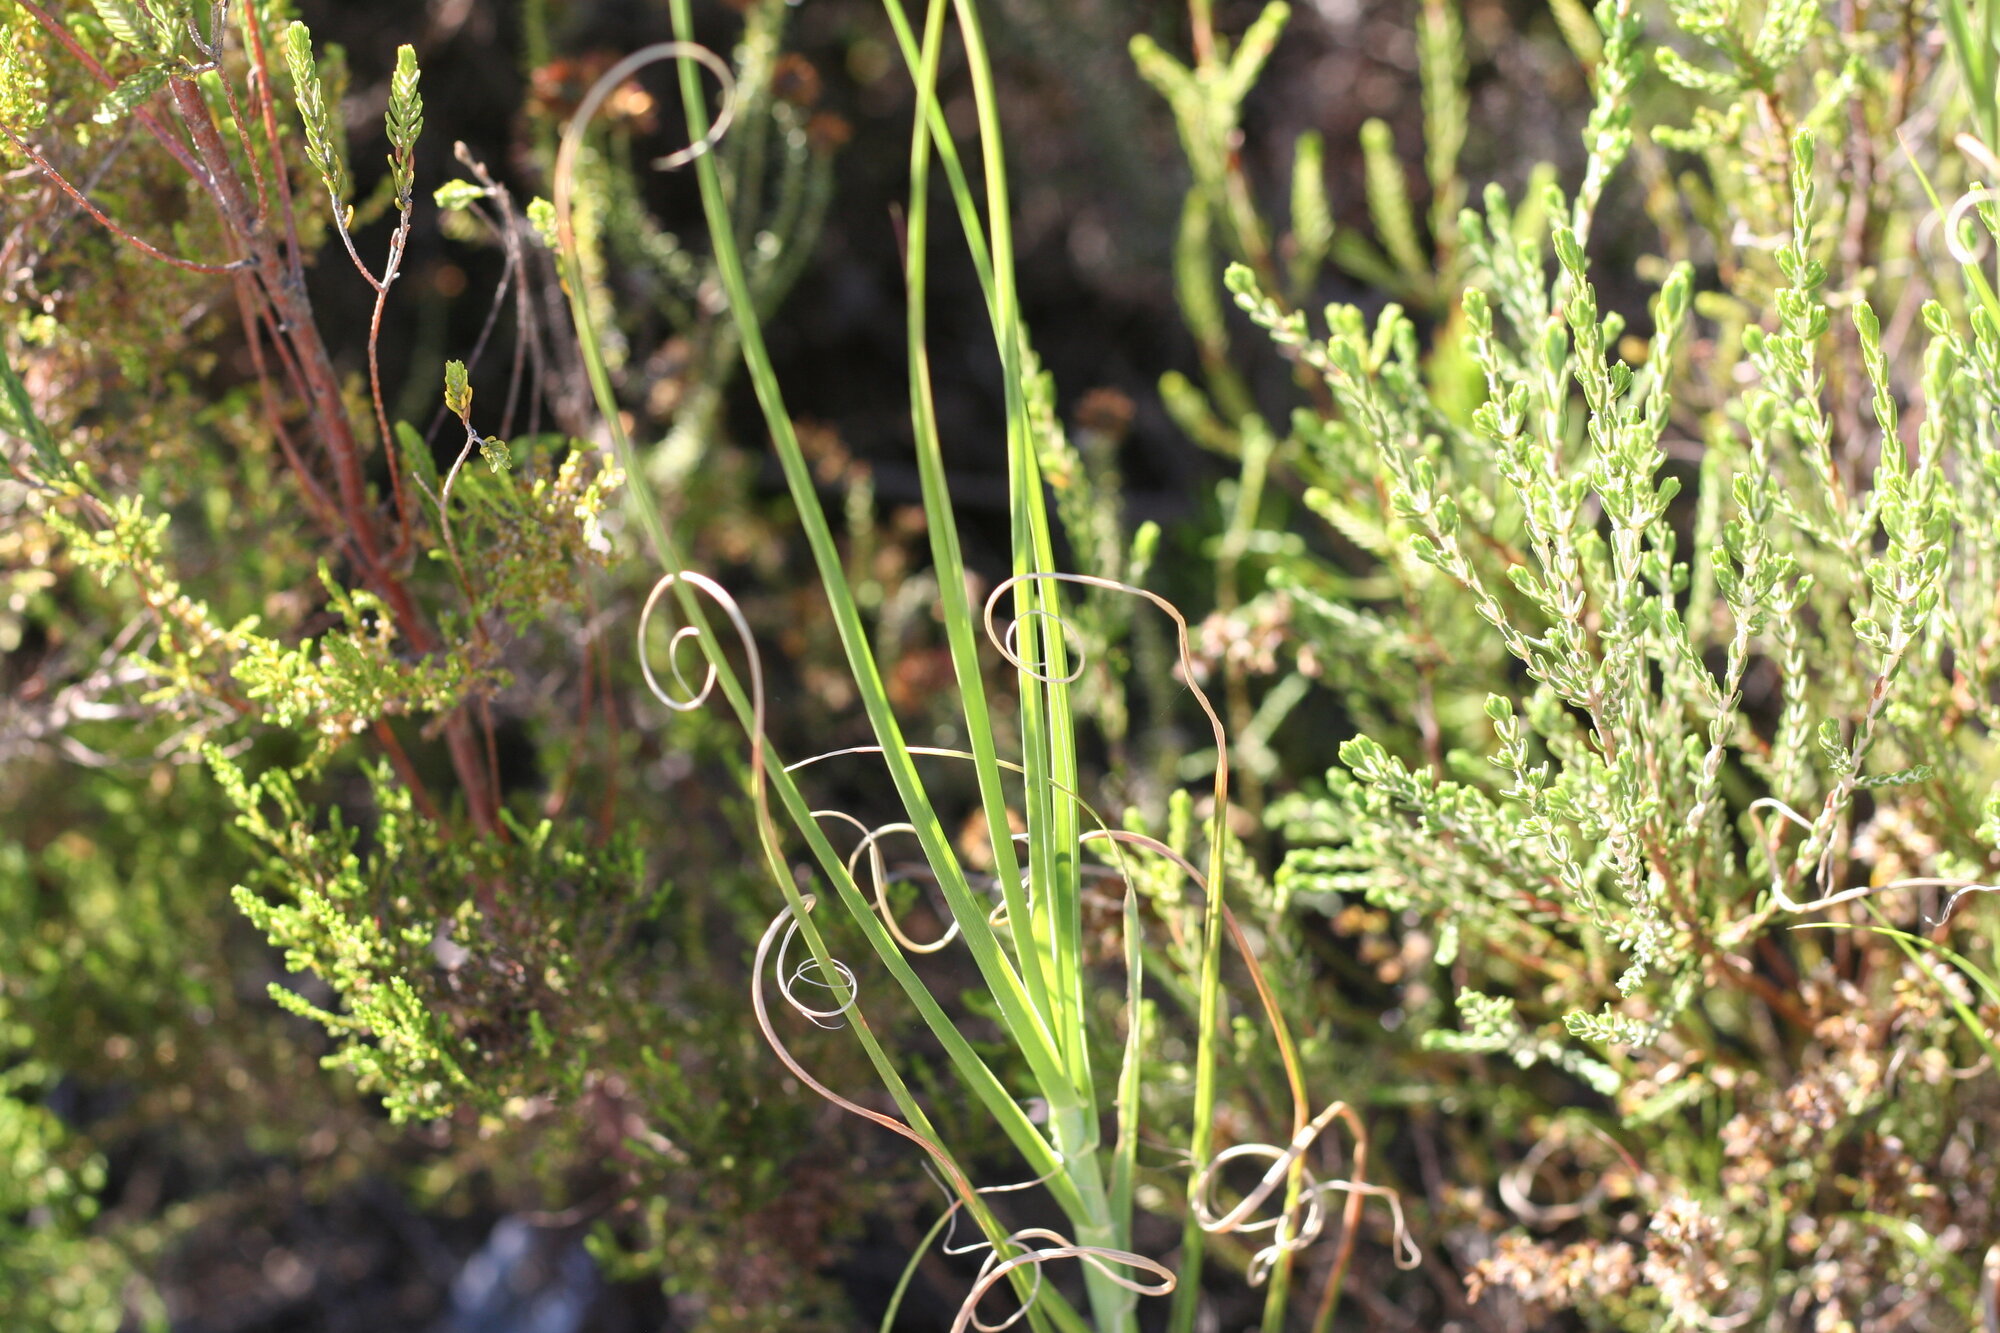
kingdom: Plantae
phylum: Tracheophyta
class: Liliopsida
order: Poales
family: Poaceae
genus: Pentameris
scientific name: Pentameris curvifolia
